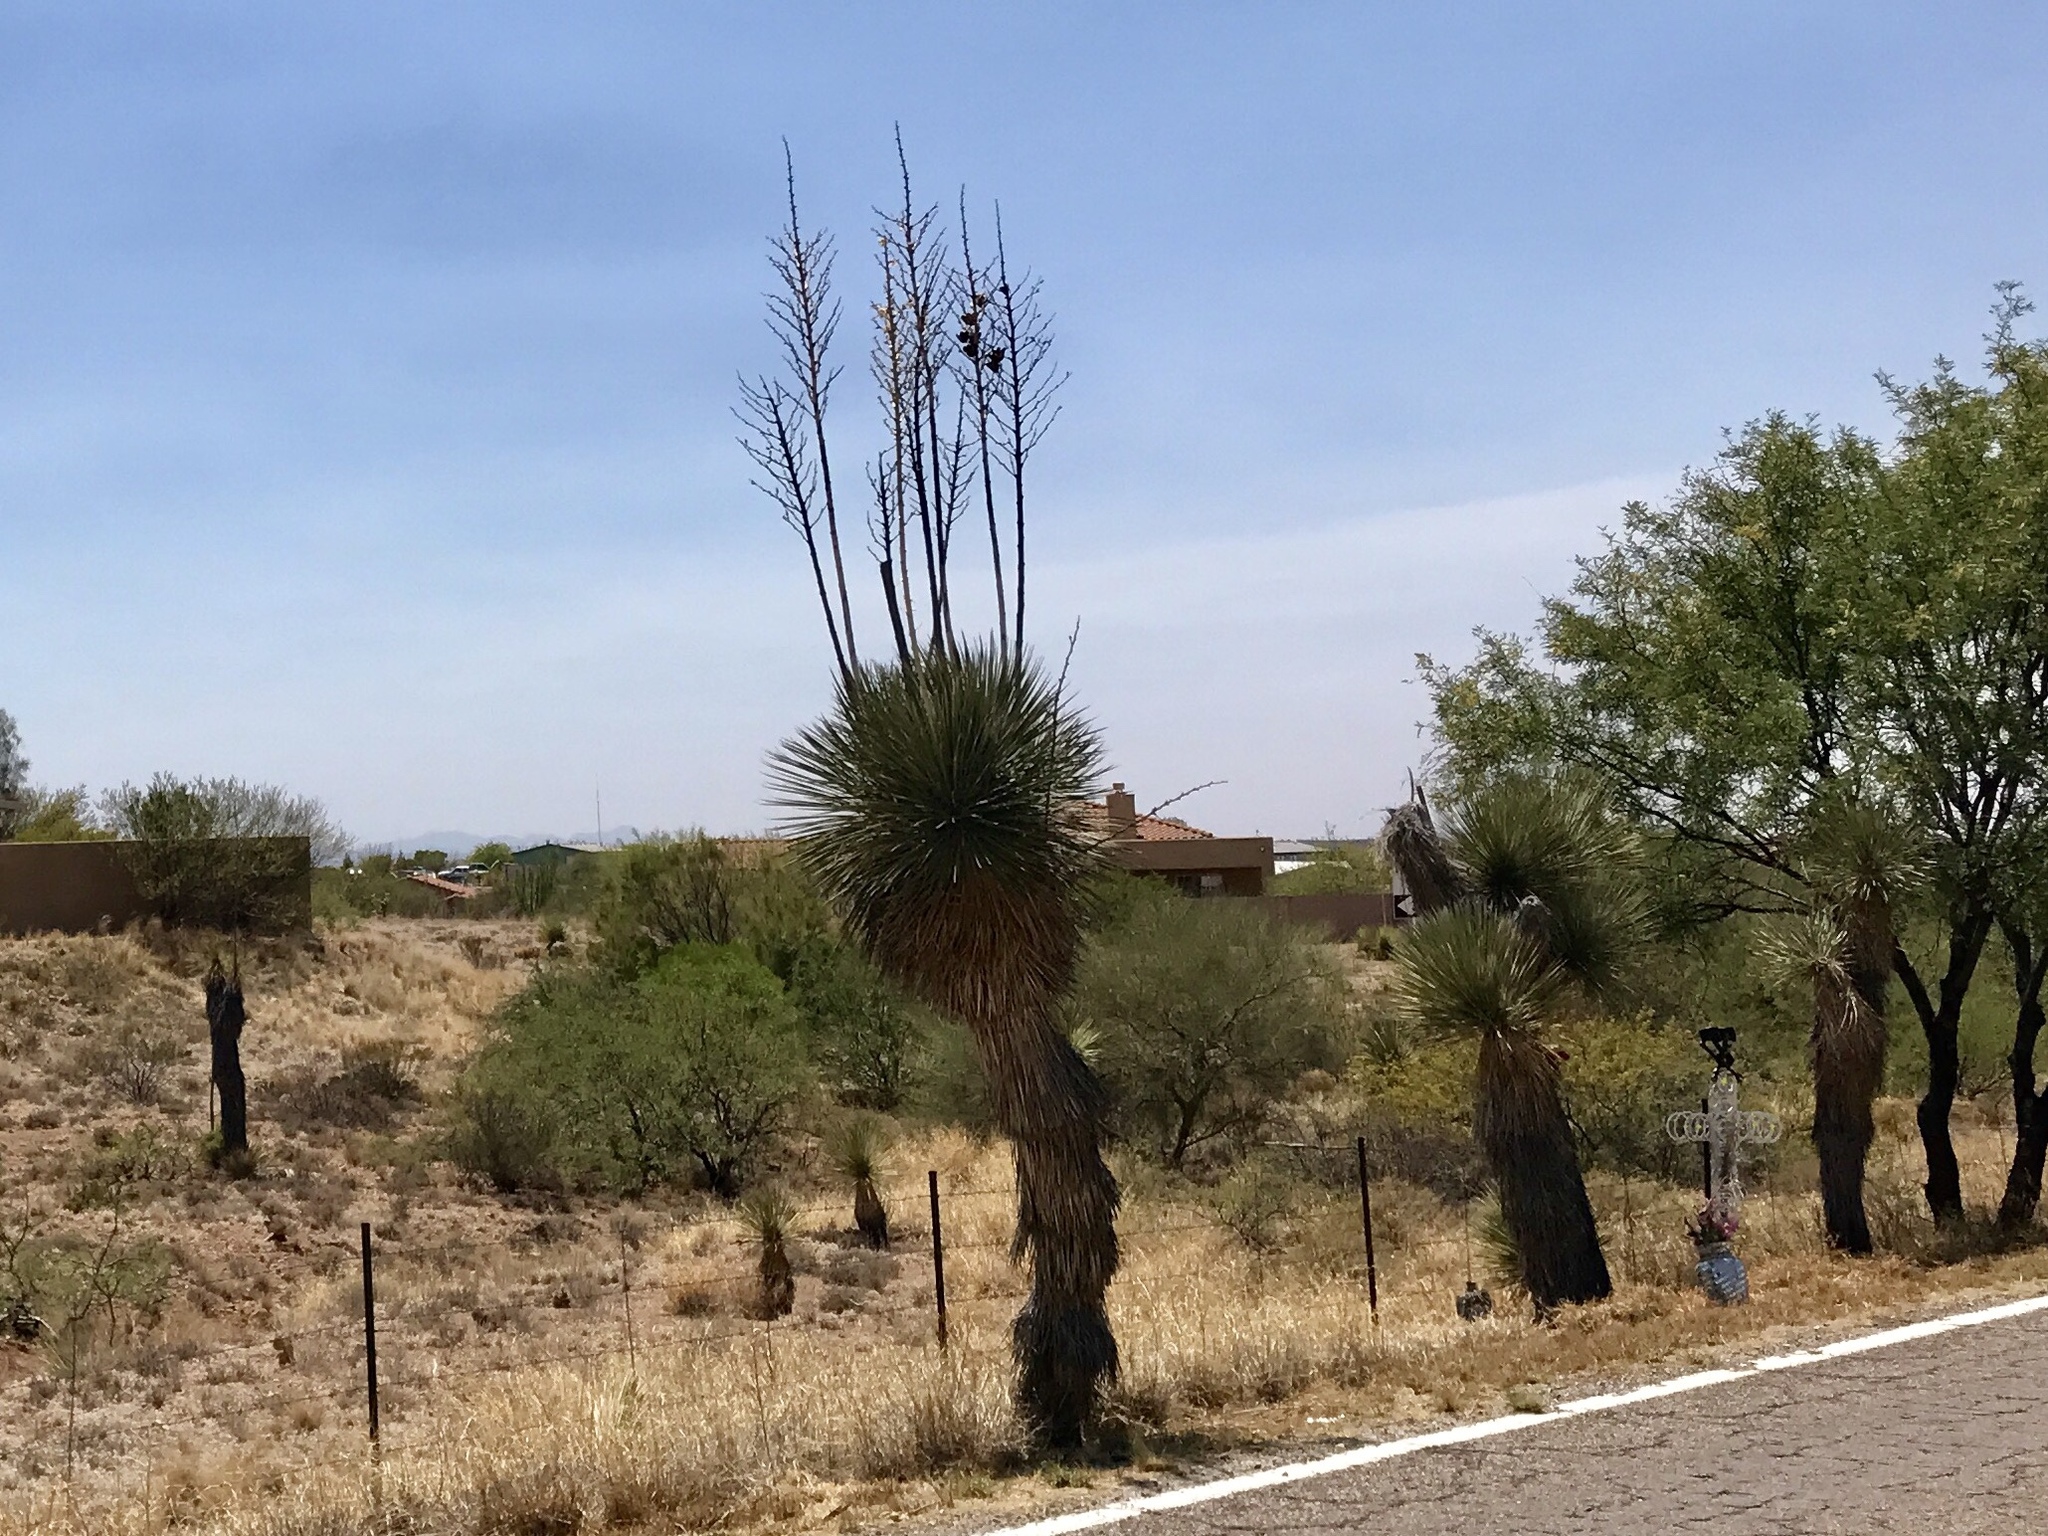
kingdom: Plantae
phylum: Tracheophyta
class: Liliopsida
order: Asparagales
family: Asparagaceae
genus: Yucca
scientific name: Yucca elata
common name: Palmella
